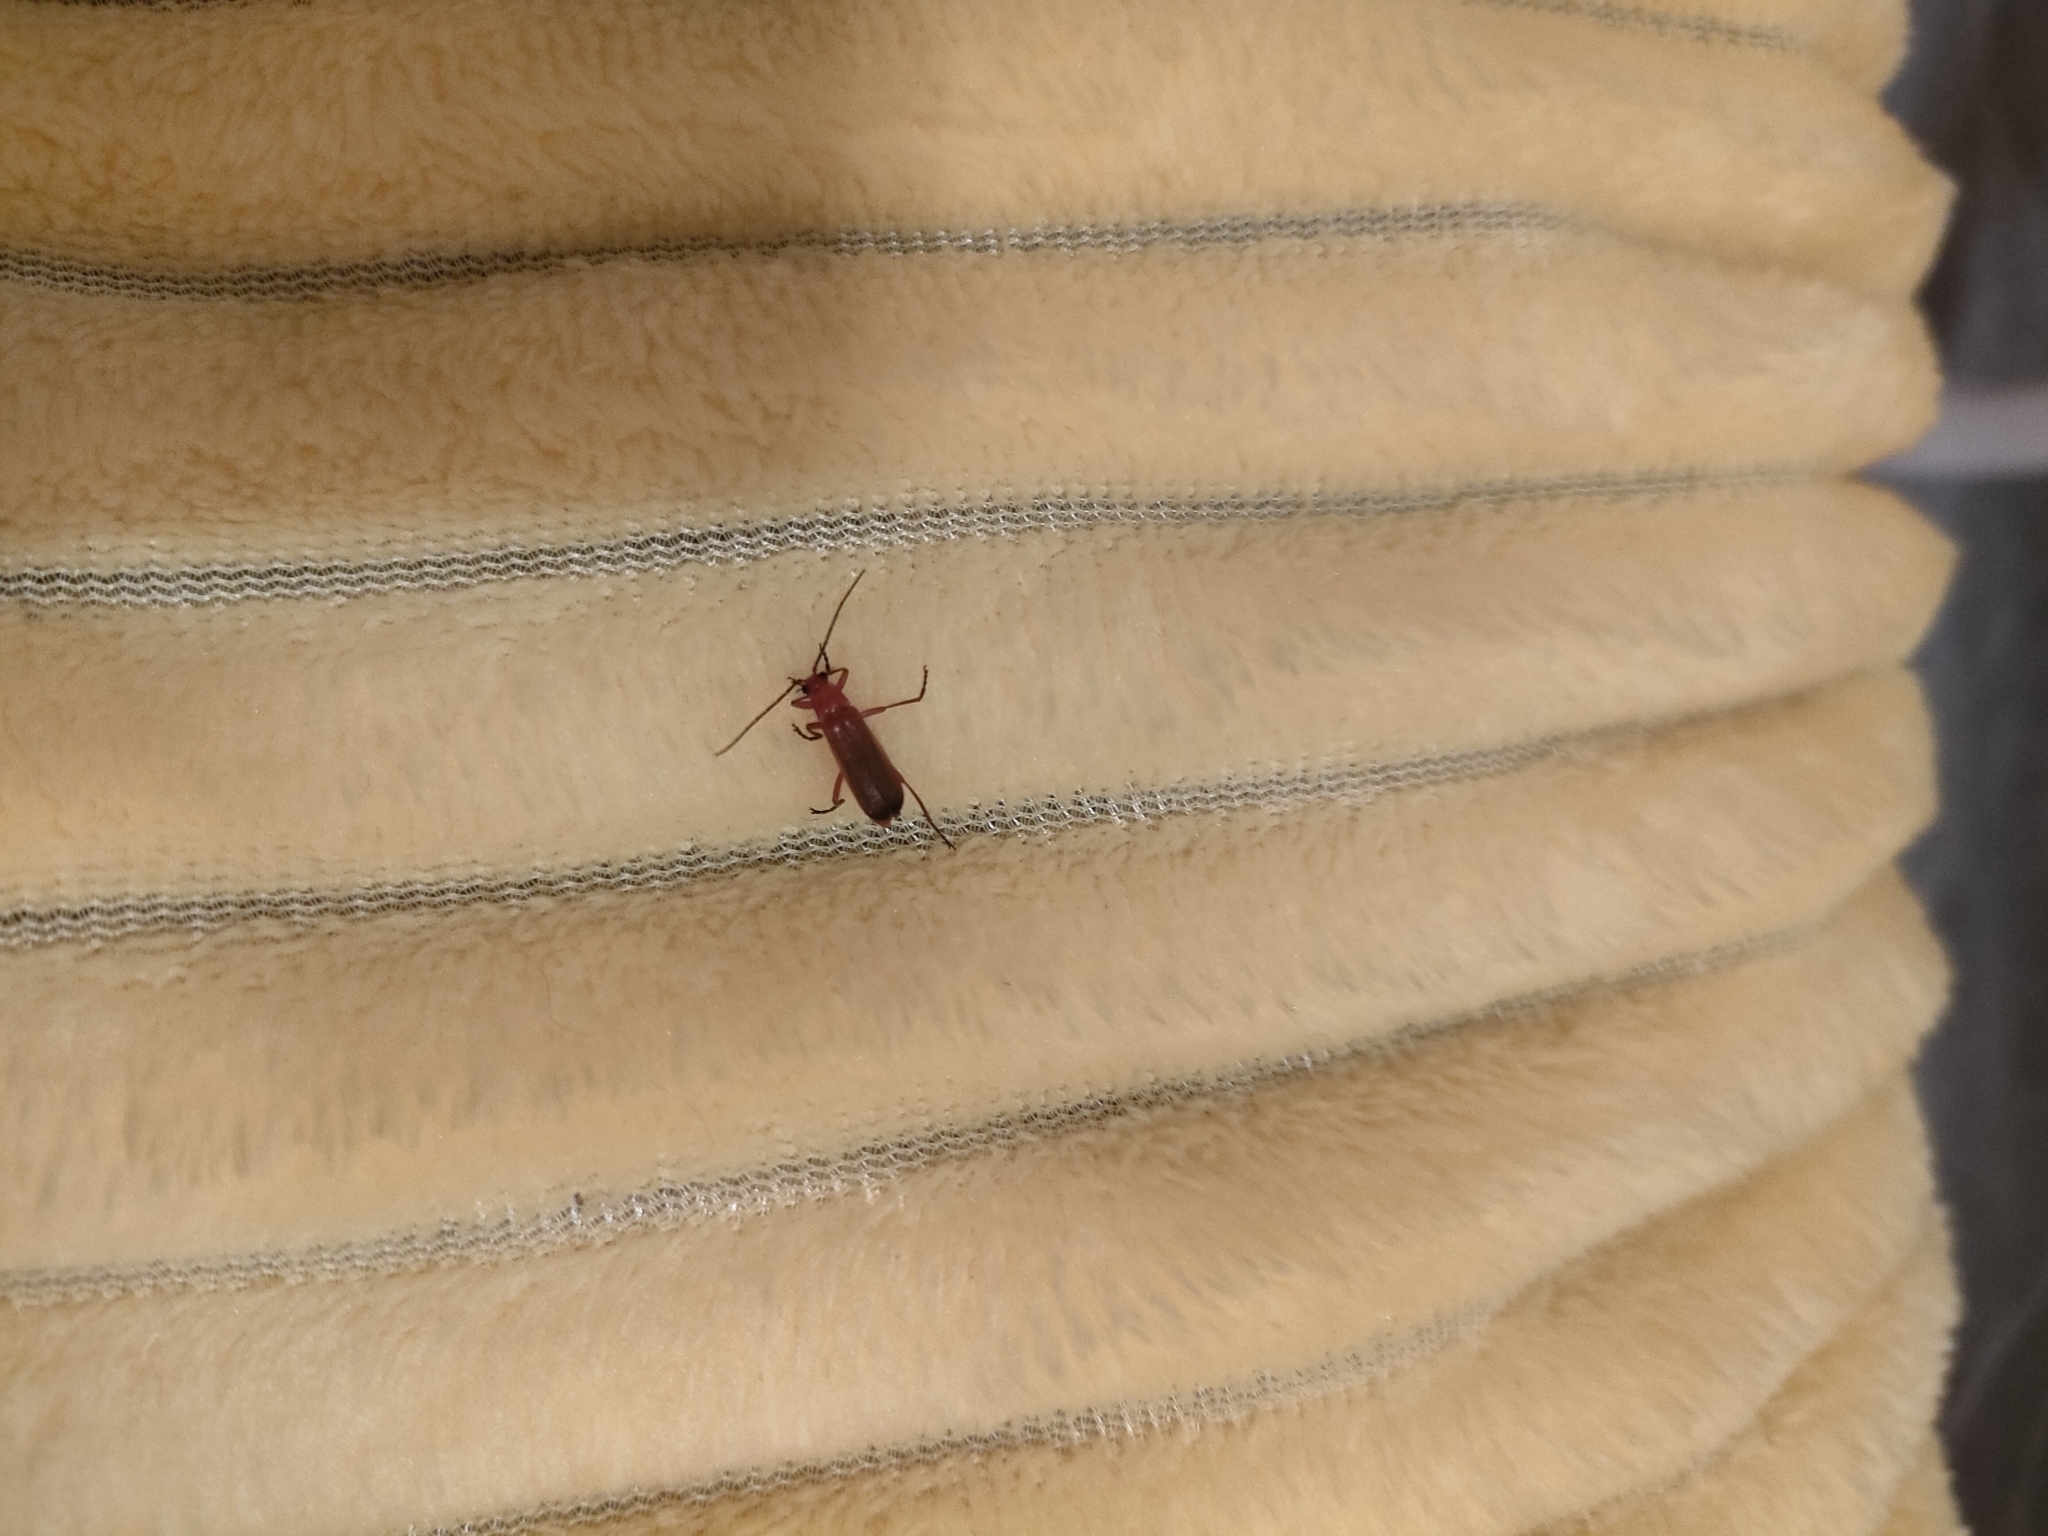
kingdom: Animalia
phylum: Arthropoda
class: Insecta
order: Coleoptera
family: Cantharidae
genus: Rhagonycha
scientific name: Rhagonycha fulva
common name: Common red soldier beetle
